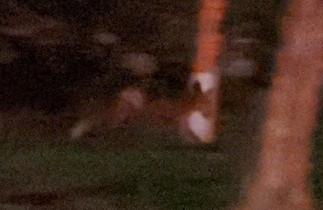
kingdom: Animalia
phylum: Chordata
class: Mammalia
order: Carnivora
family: Canidae
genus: Vulpes
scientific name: Vulpes vulpes
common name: Red fox
